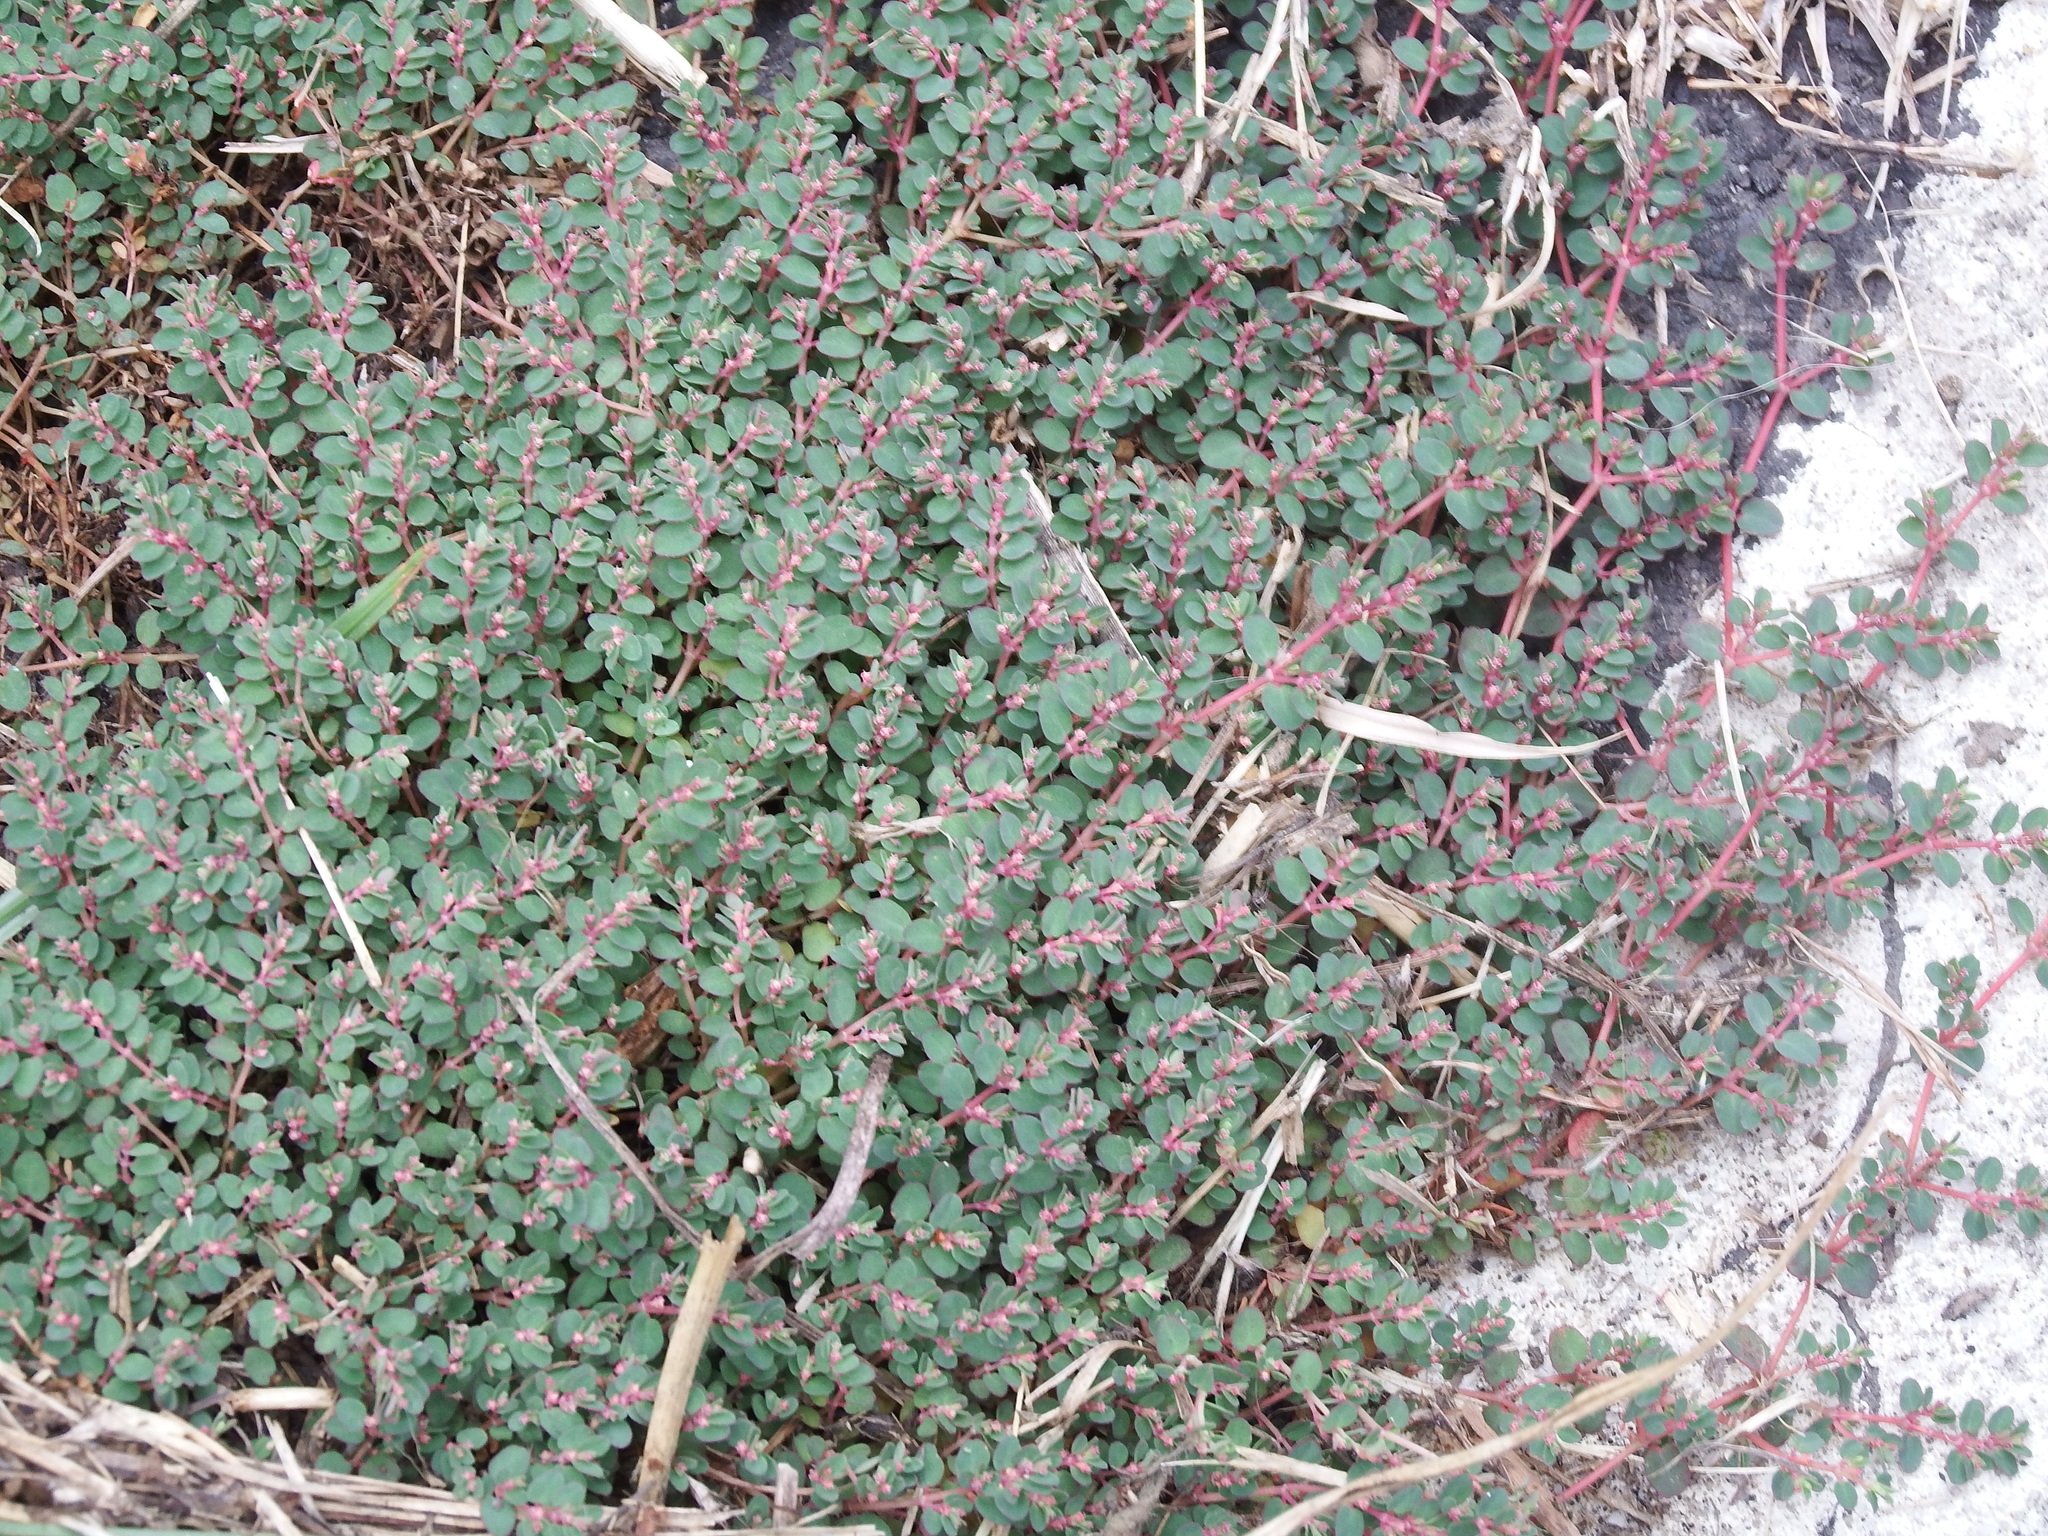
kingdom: Plantae
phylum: Tracheophyta
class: Magnoliopsida
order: Malpighiales
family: Euphorbiaceae
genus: Euphorbia
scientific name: Euphorbia serpens
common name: Matted sandmat
